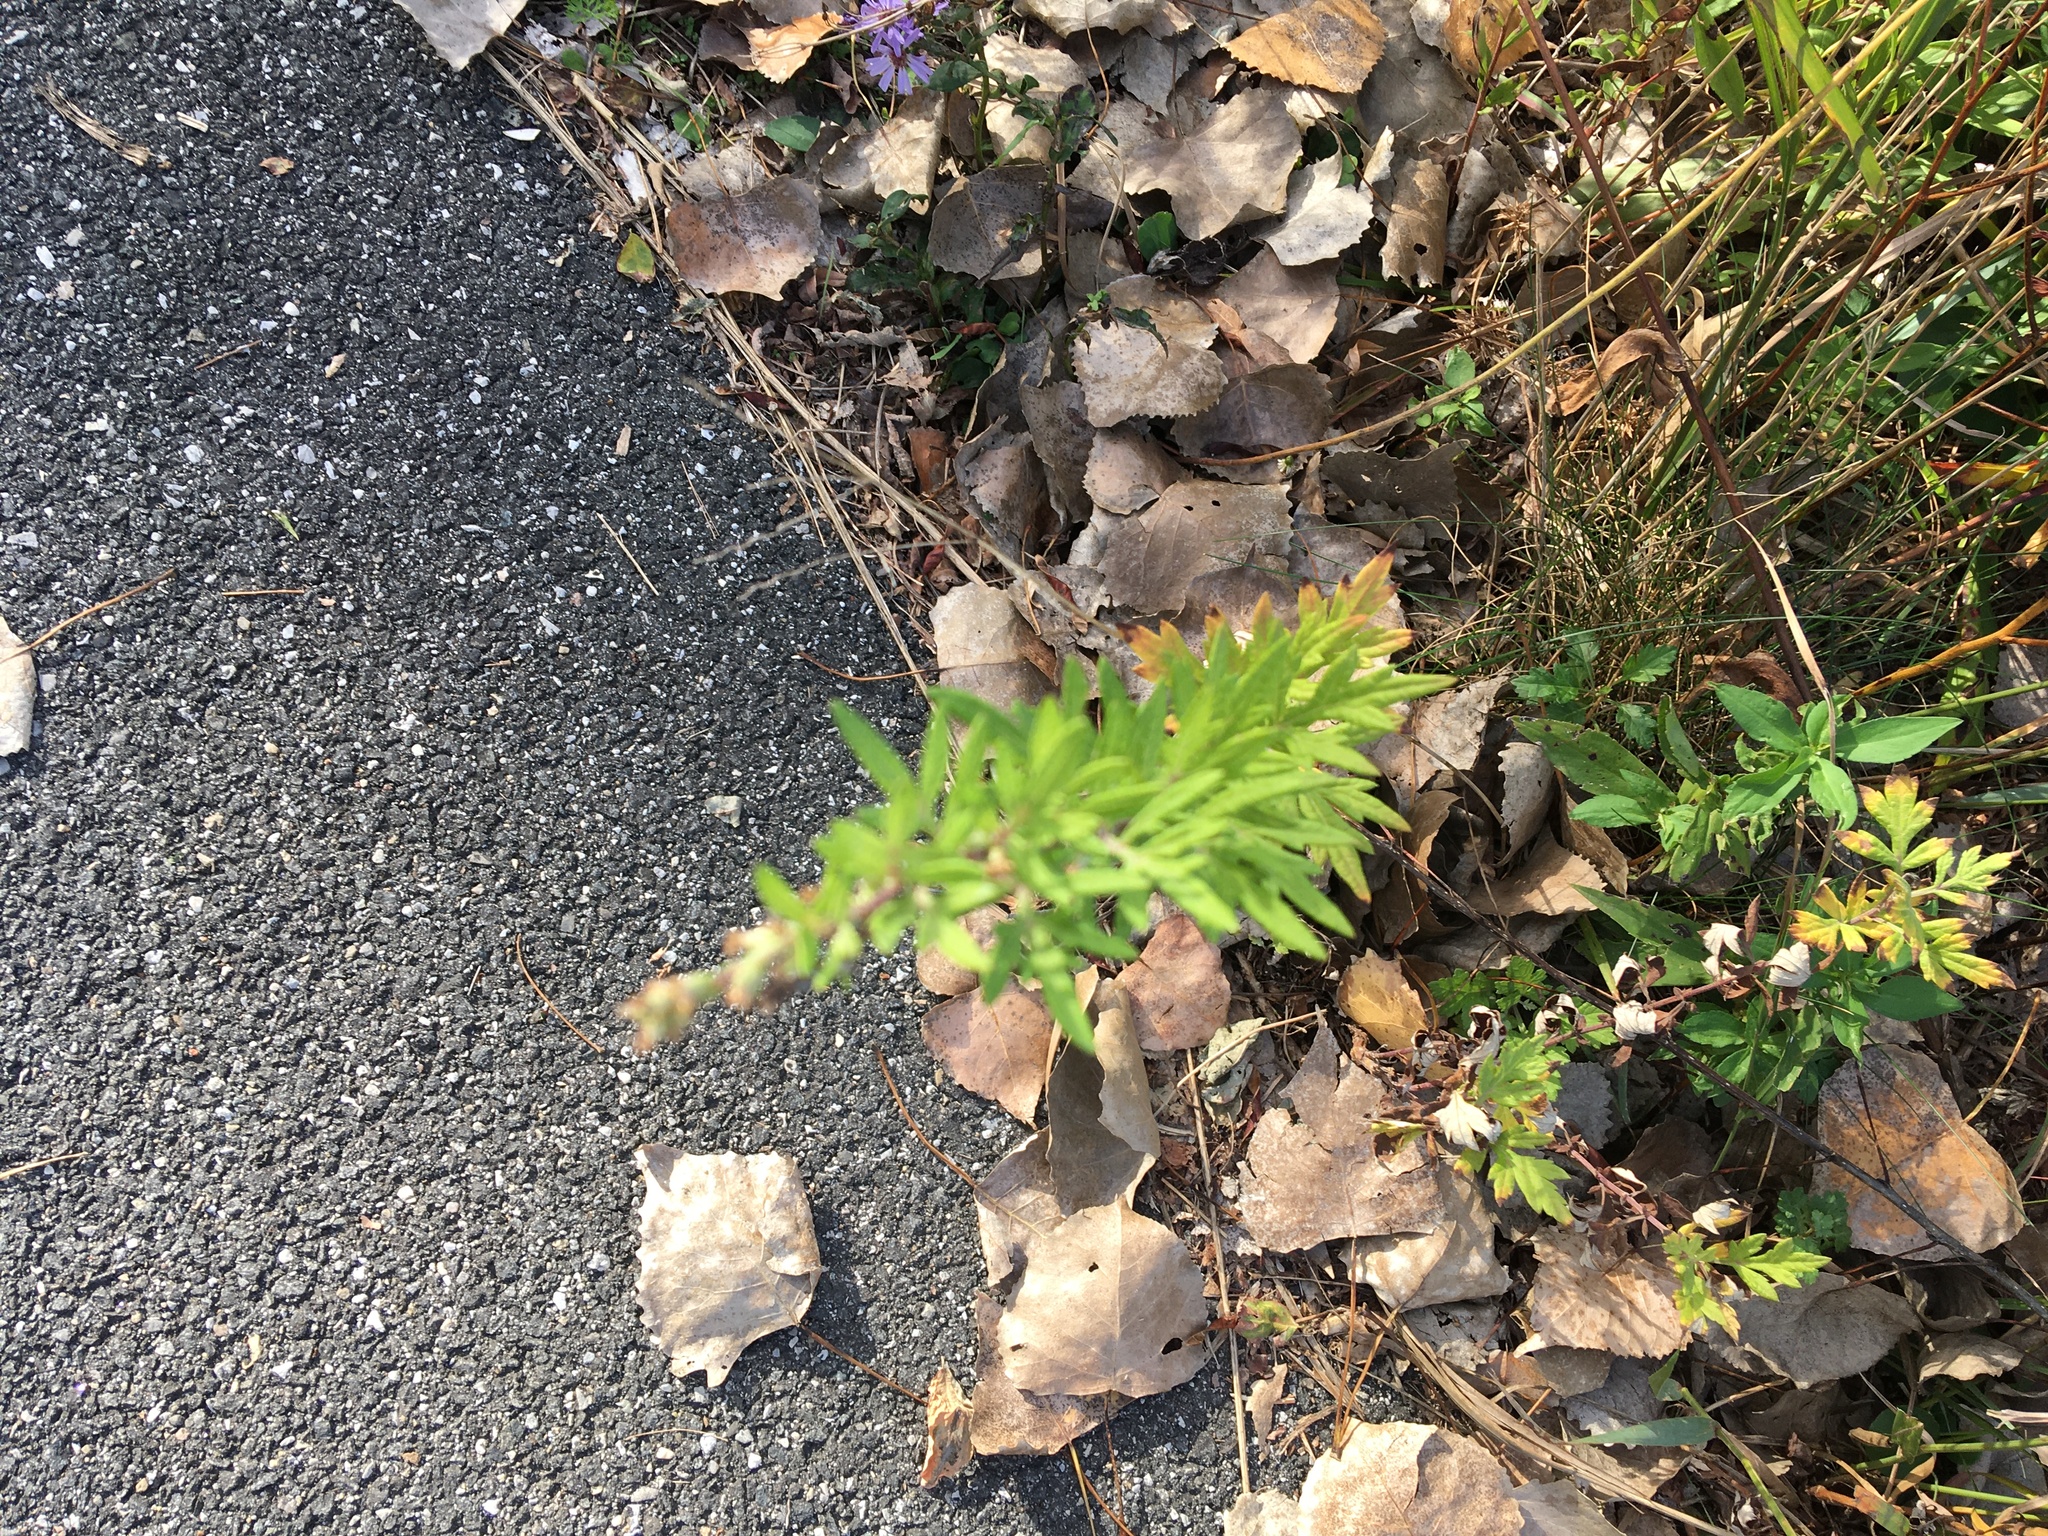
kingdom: Plantae
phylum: Tracheophyta
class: Magnoliopsida
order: Asterales
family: Asteraceae
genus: Artemisia
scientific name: Artemisia vulgaris
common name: Mugwort
